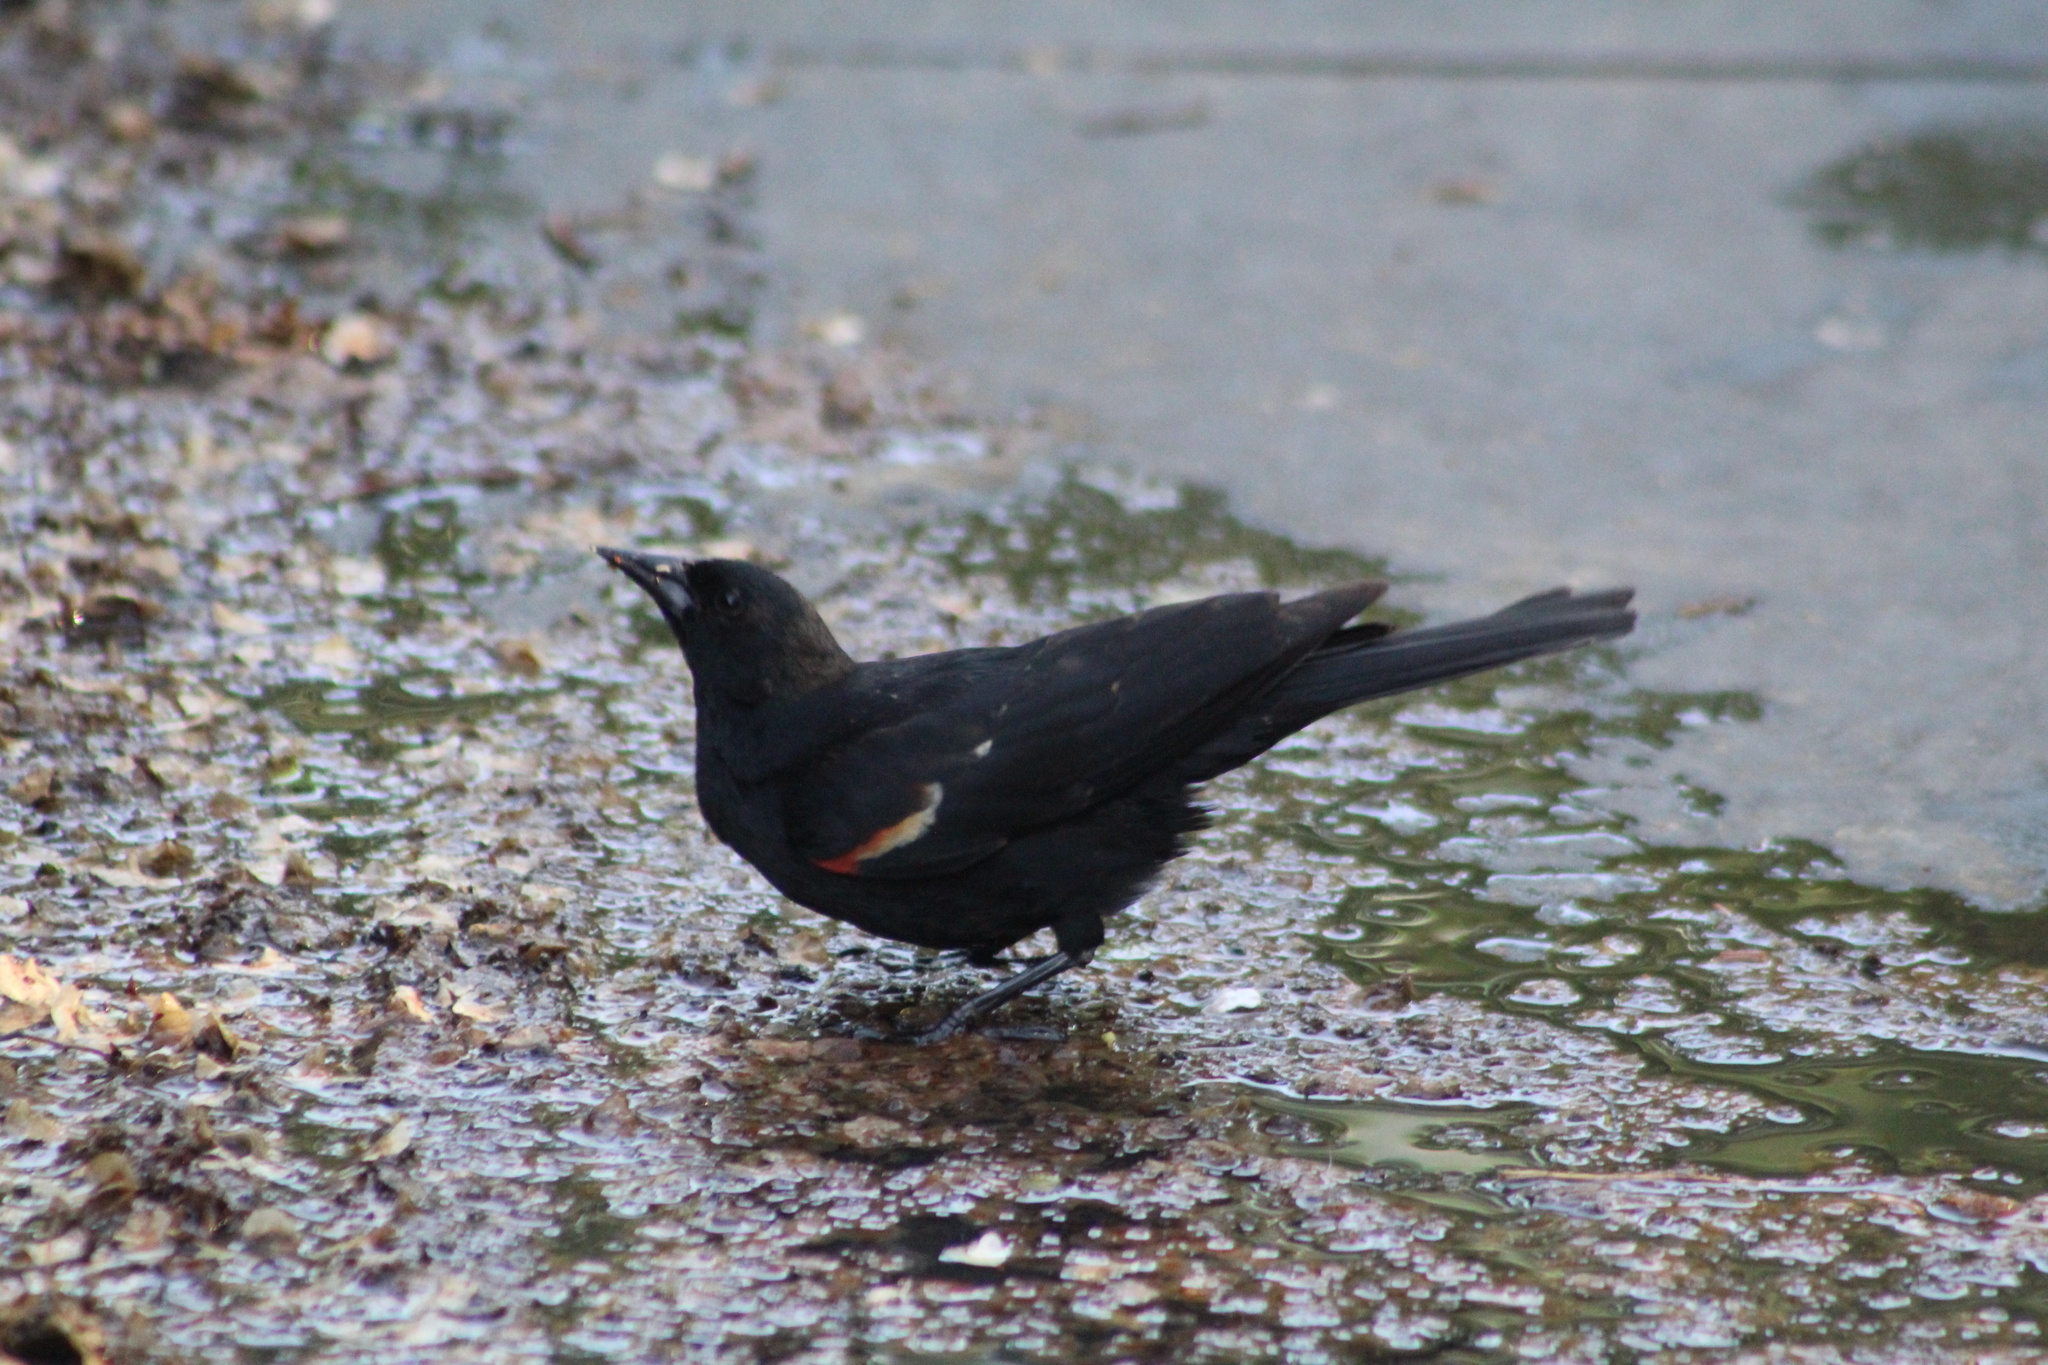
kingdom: Animalia
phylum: Chordata
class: Aves
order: Passeriformes
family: Icteridae
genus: Agelaius
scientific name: Agelaius phoeniceus
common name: Red-winged blackbird
